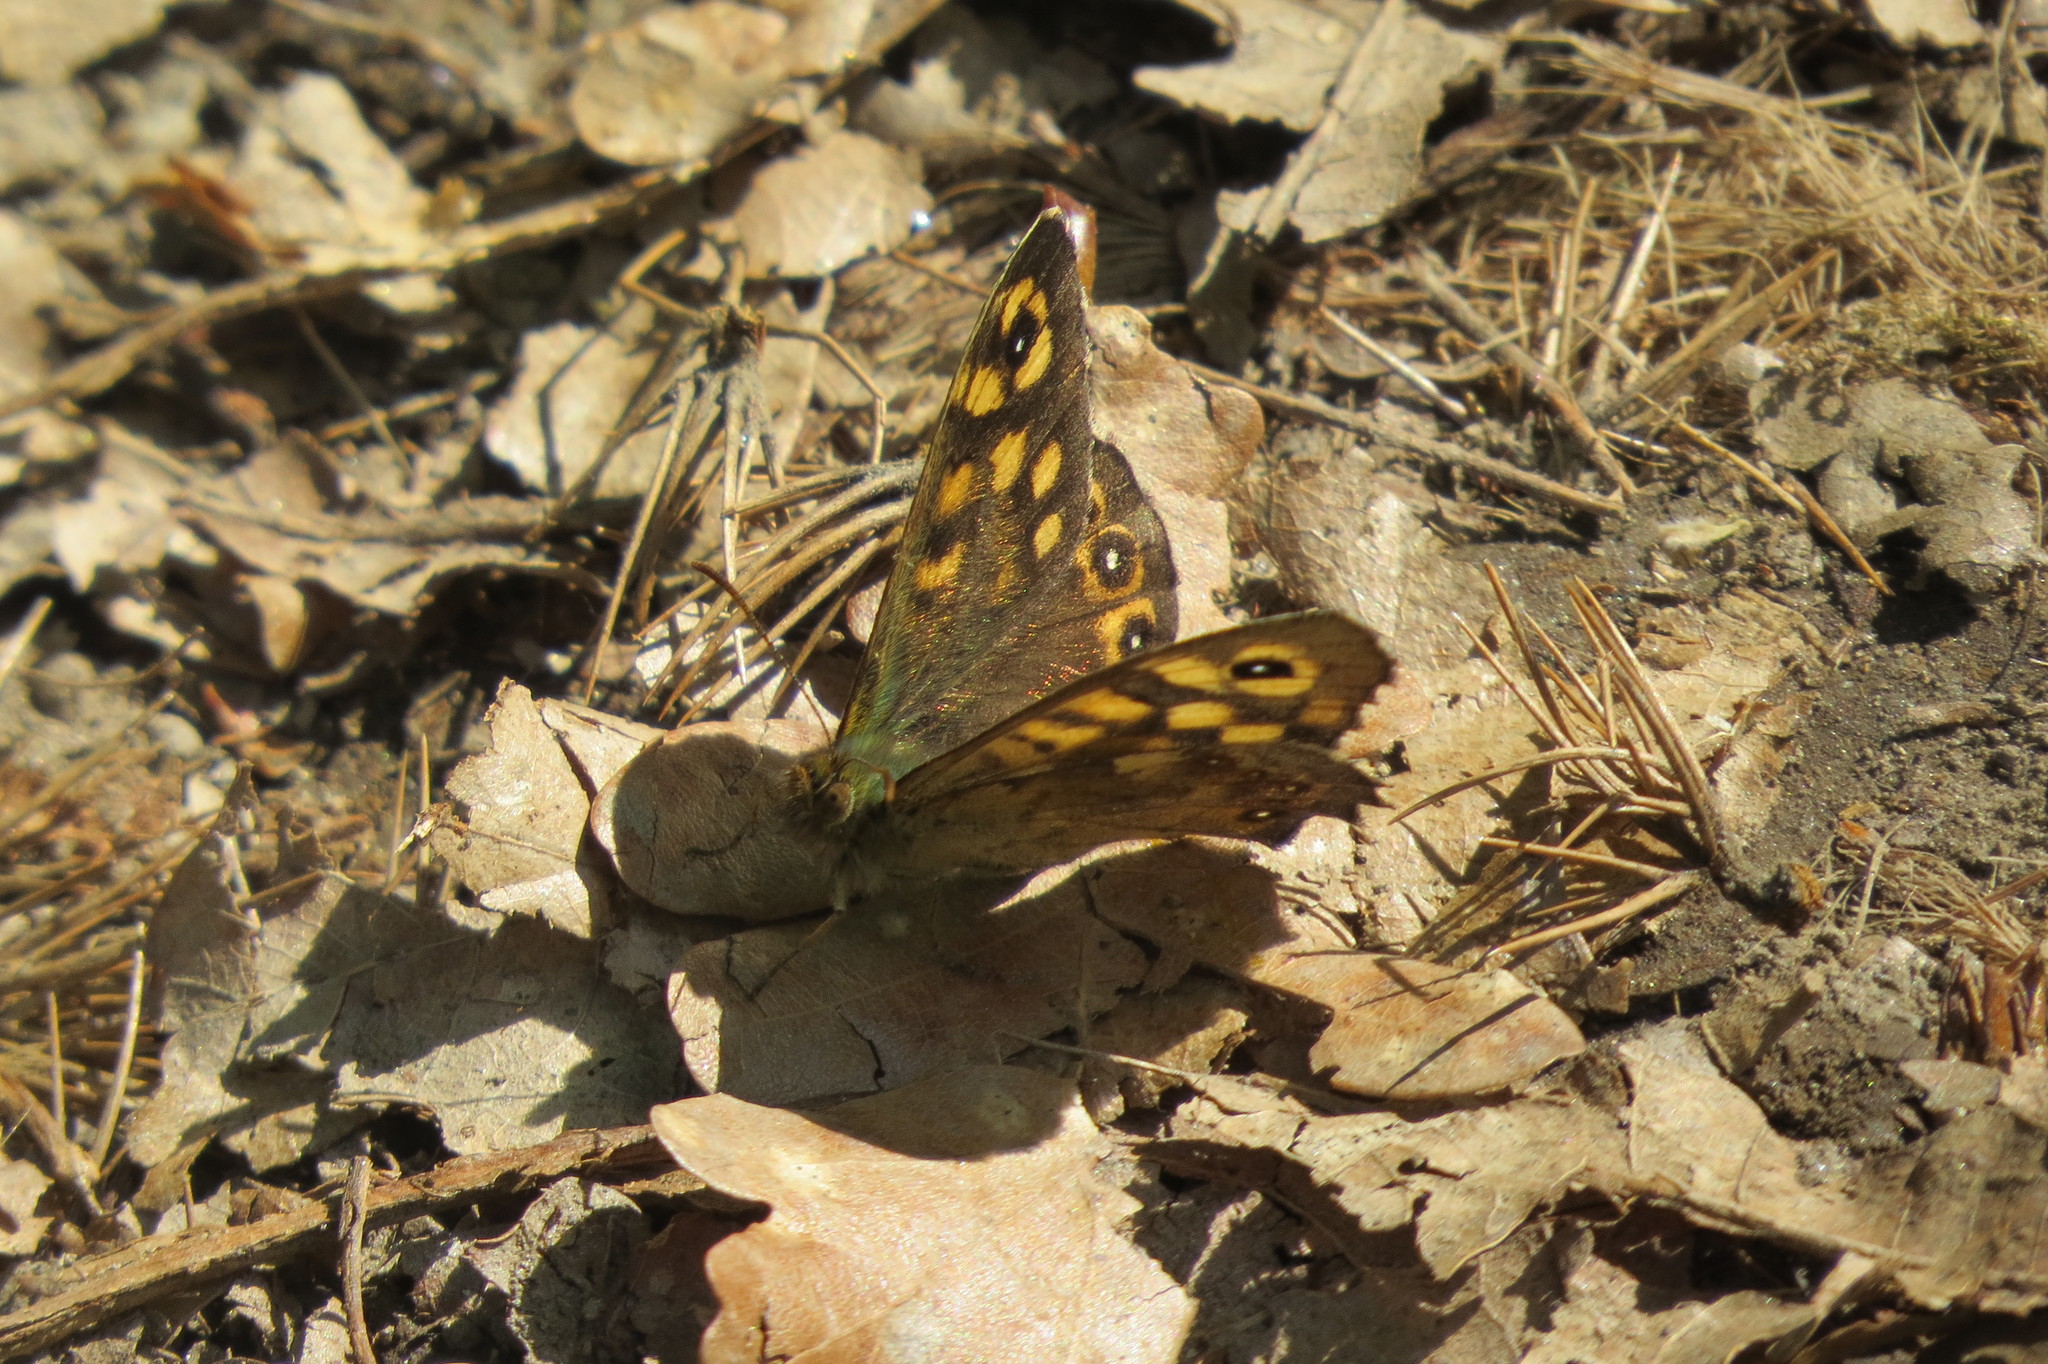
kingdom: Animalia
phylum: Arthropoda
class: Insecta
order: Lepidoptera
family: Nymphalidae
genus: Pararge
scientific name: Pararge aegeria
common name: Speckled wood
